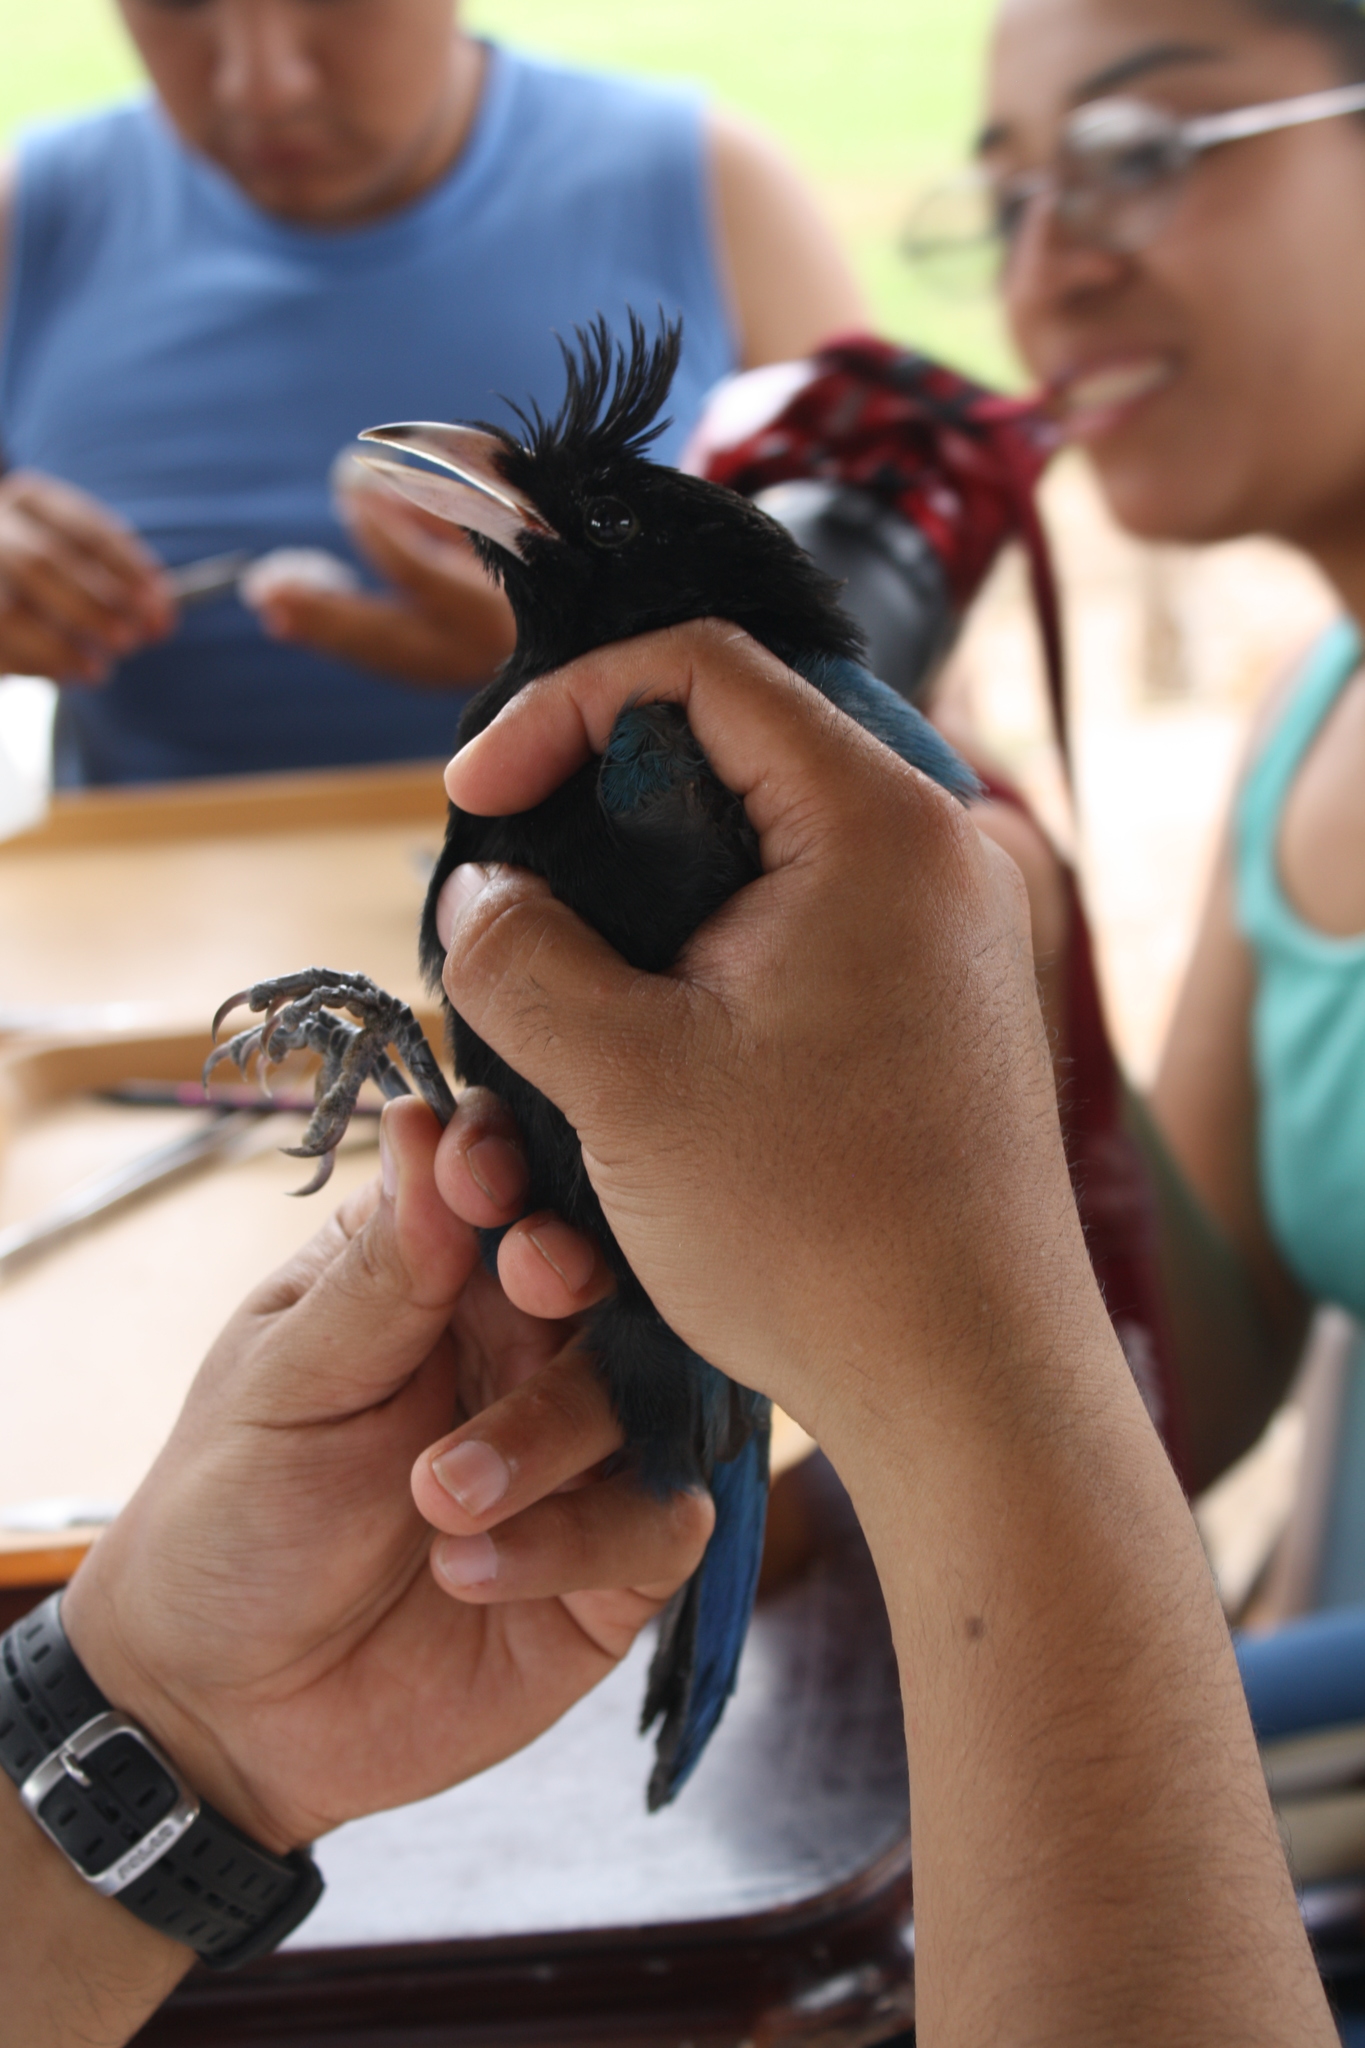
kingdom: Animalia
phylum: Chordata
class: Aves
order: Passeriformes
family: Corvidae
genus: Cyanocorax
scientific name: Cyanocorax sanblasianus
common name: San blas jay
